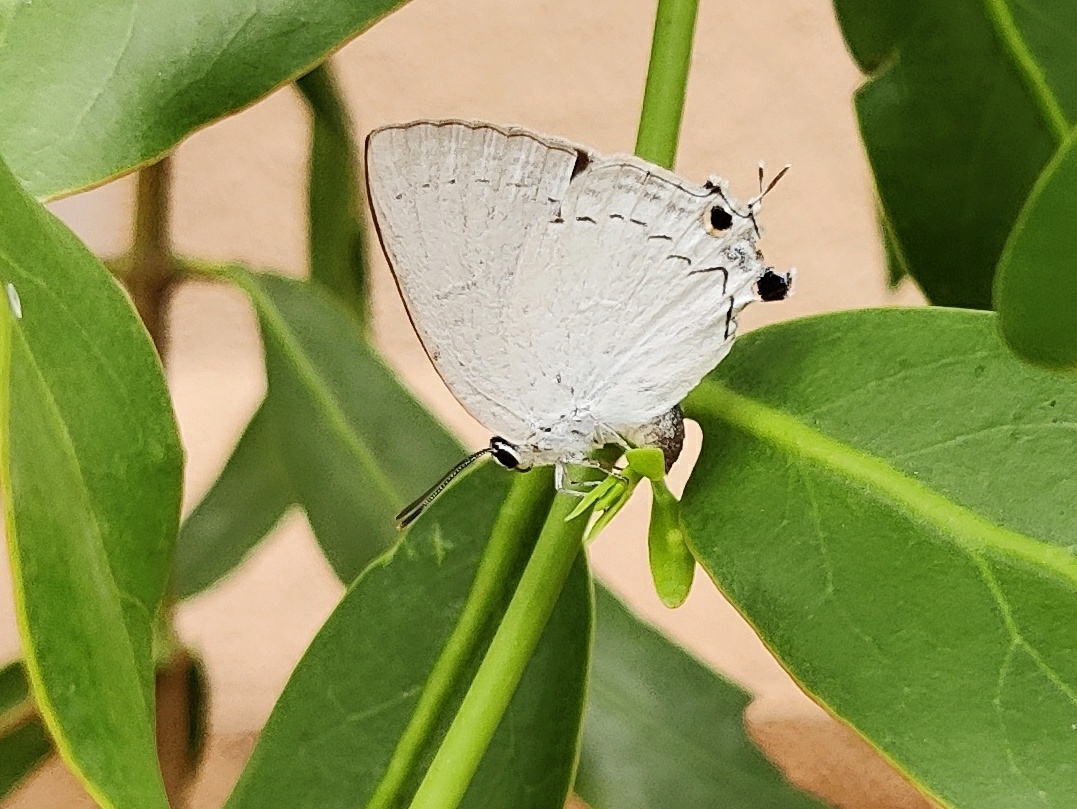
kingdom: Animalia
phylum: Arthropoda
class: Insecta
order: Lepidoptera
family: Lycaenidae
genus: Tajuria
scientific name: Tajuria cippus
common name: Peacock royal
